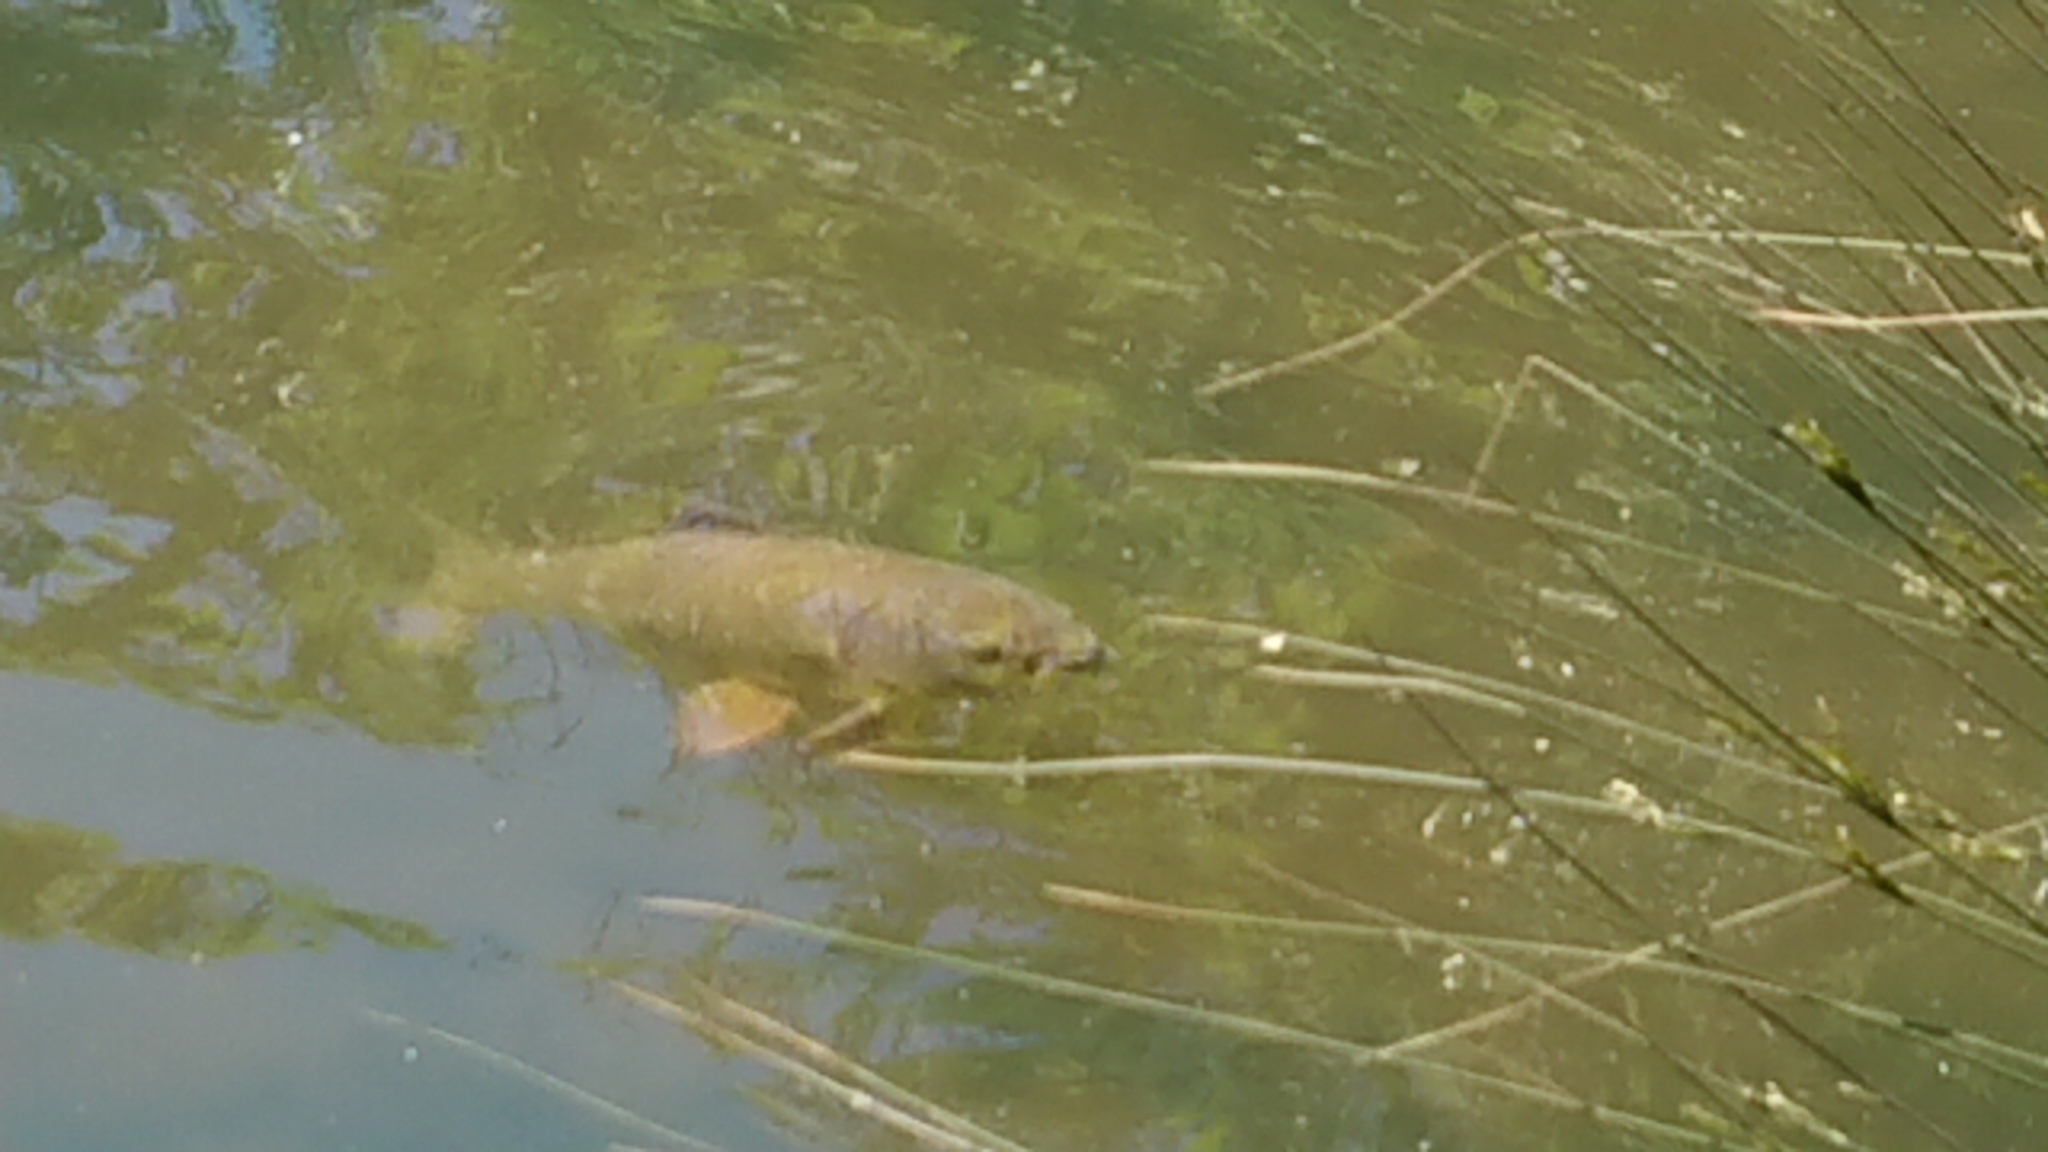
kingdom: Animalia
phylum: Chordata
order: Cypriniformes
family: Cyprinidae
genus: Cyprinus
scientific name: Cyprinus carpio
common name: Common carp
